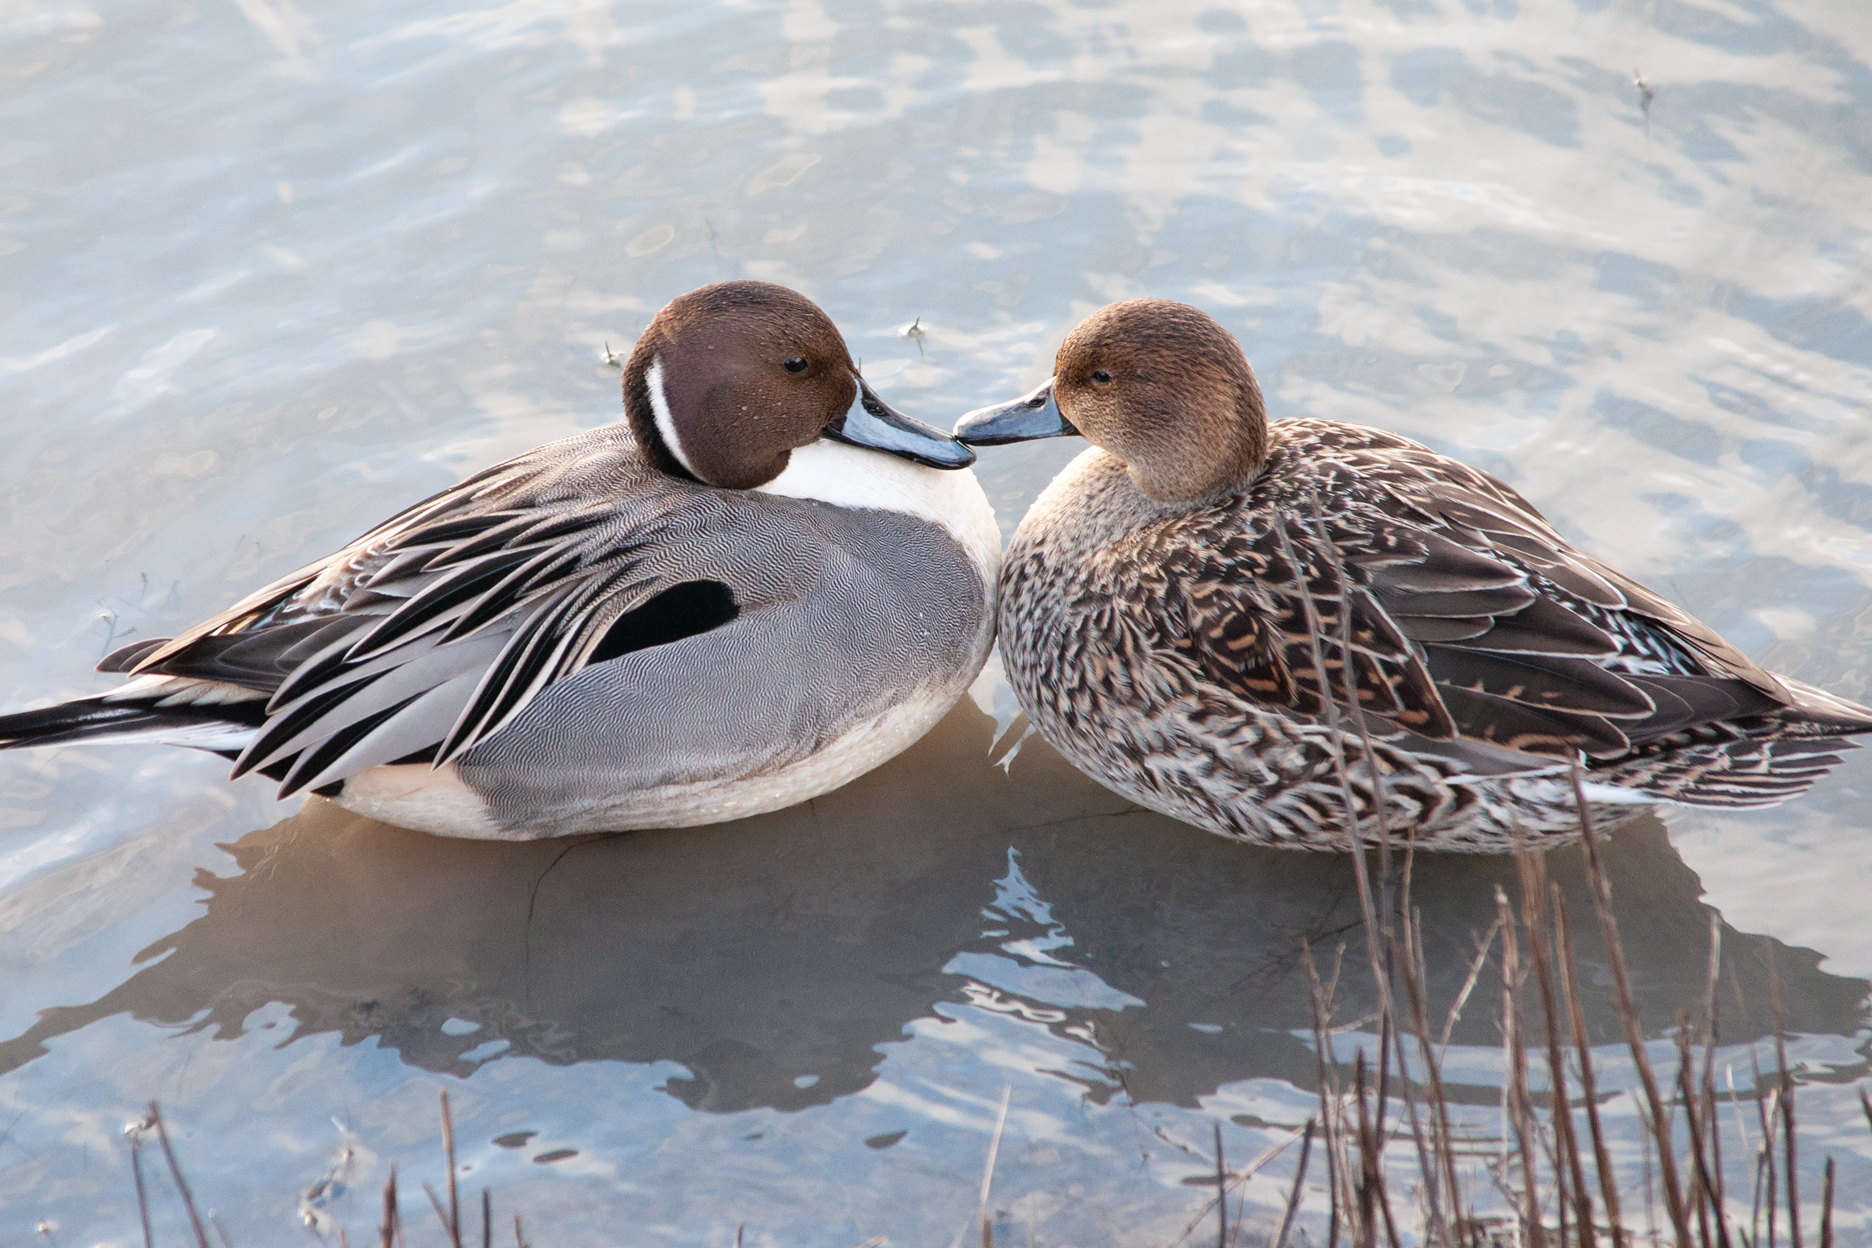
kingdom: Animalia
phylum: Chordata
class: Aves
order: Anseriformes
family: Anatidae
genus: Anas
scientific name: Anas acuta
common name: Northern pintail
